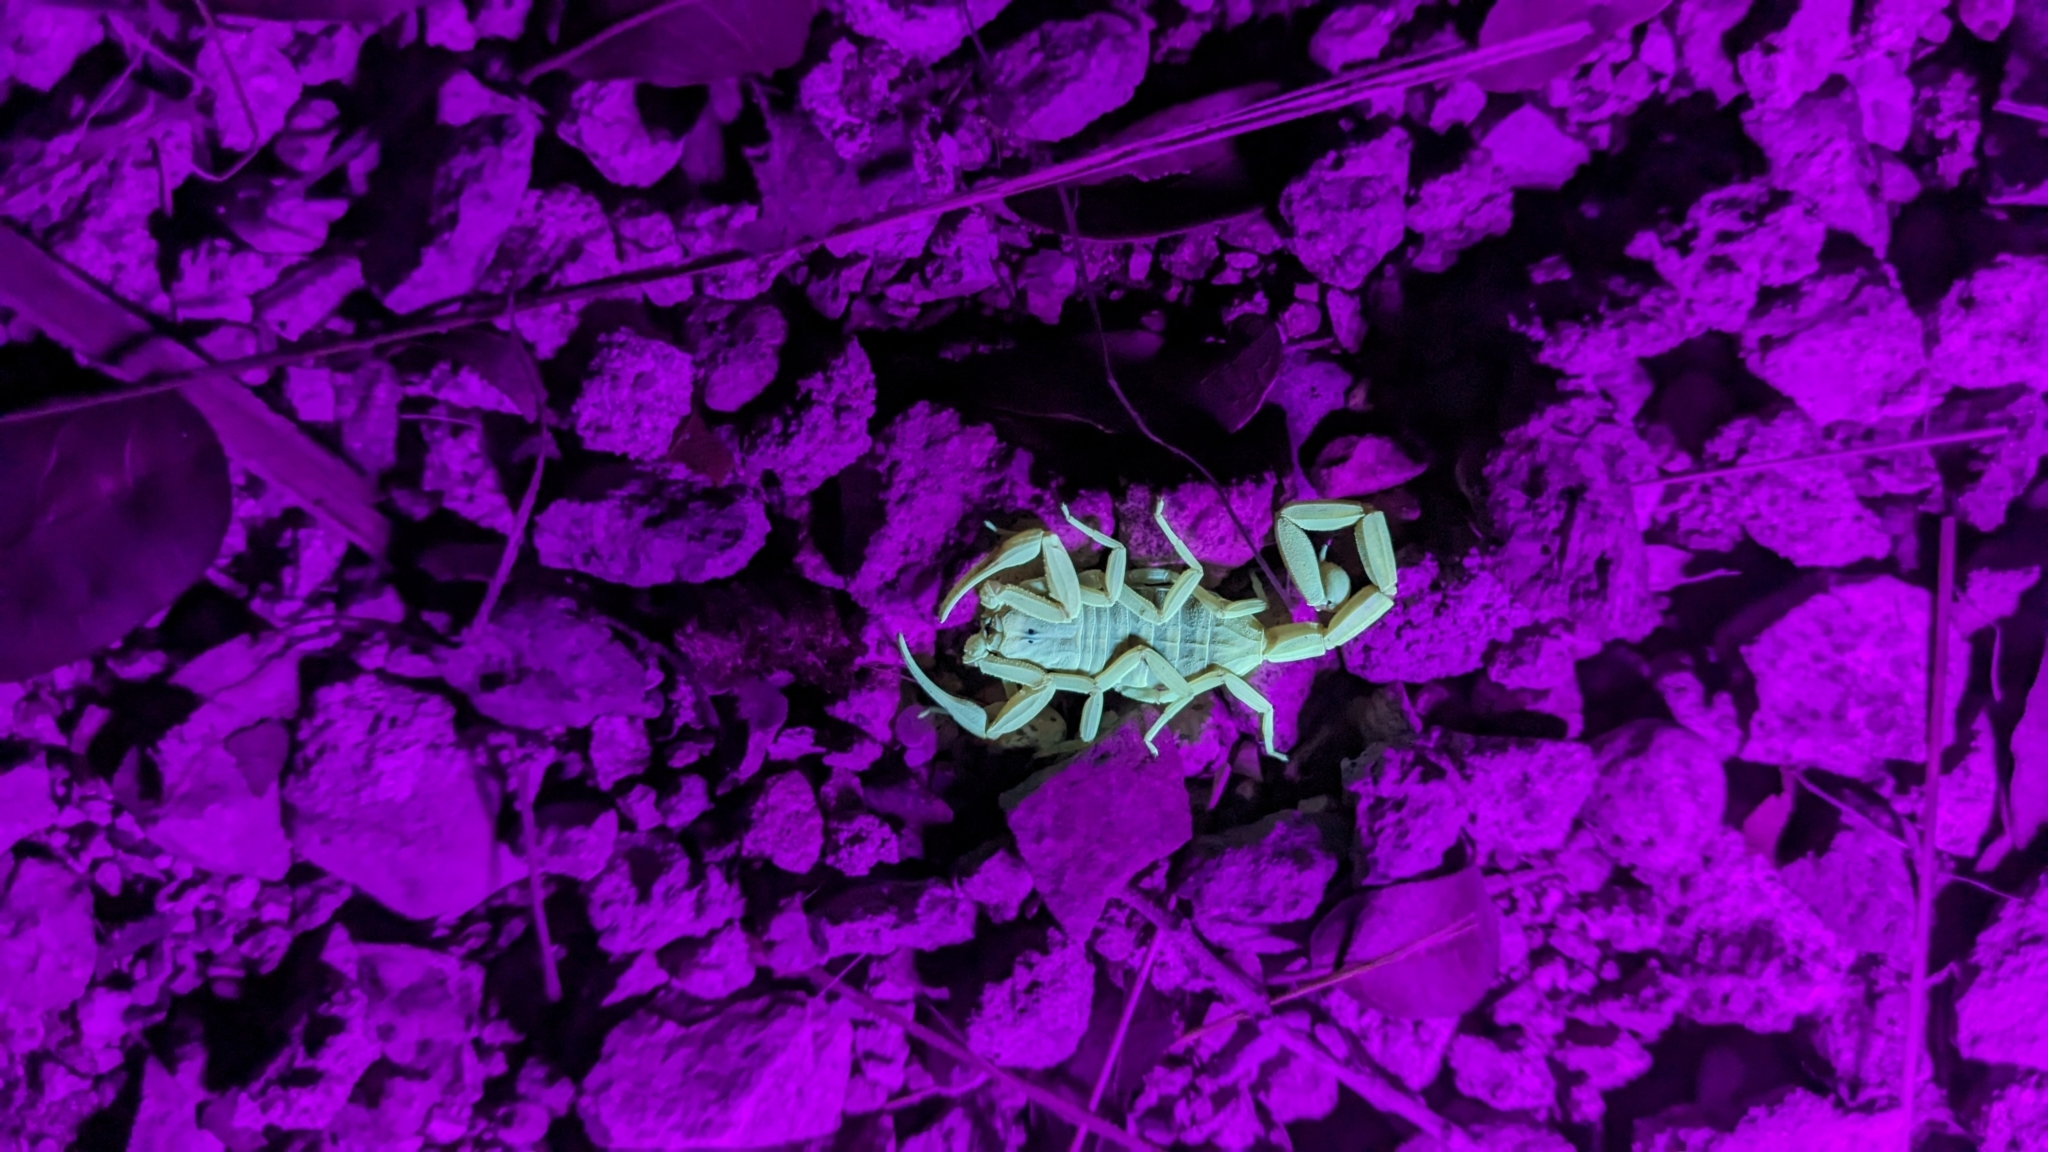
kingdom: Animalia
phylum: Arthropoda
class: Arachnida
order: Scorpiones
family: Buthidae
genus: Centruroides
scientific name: Centruroides sculpturatus
